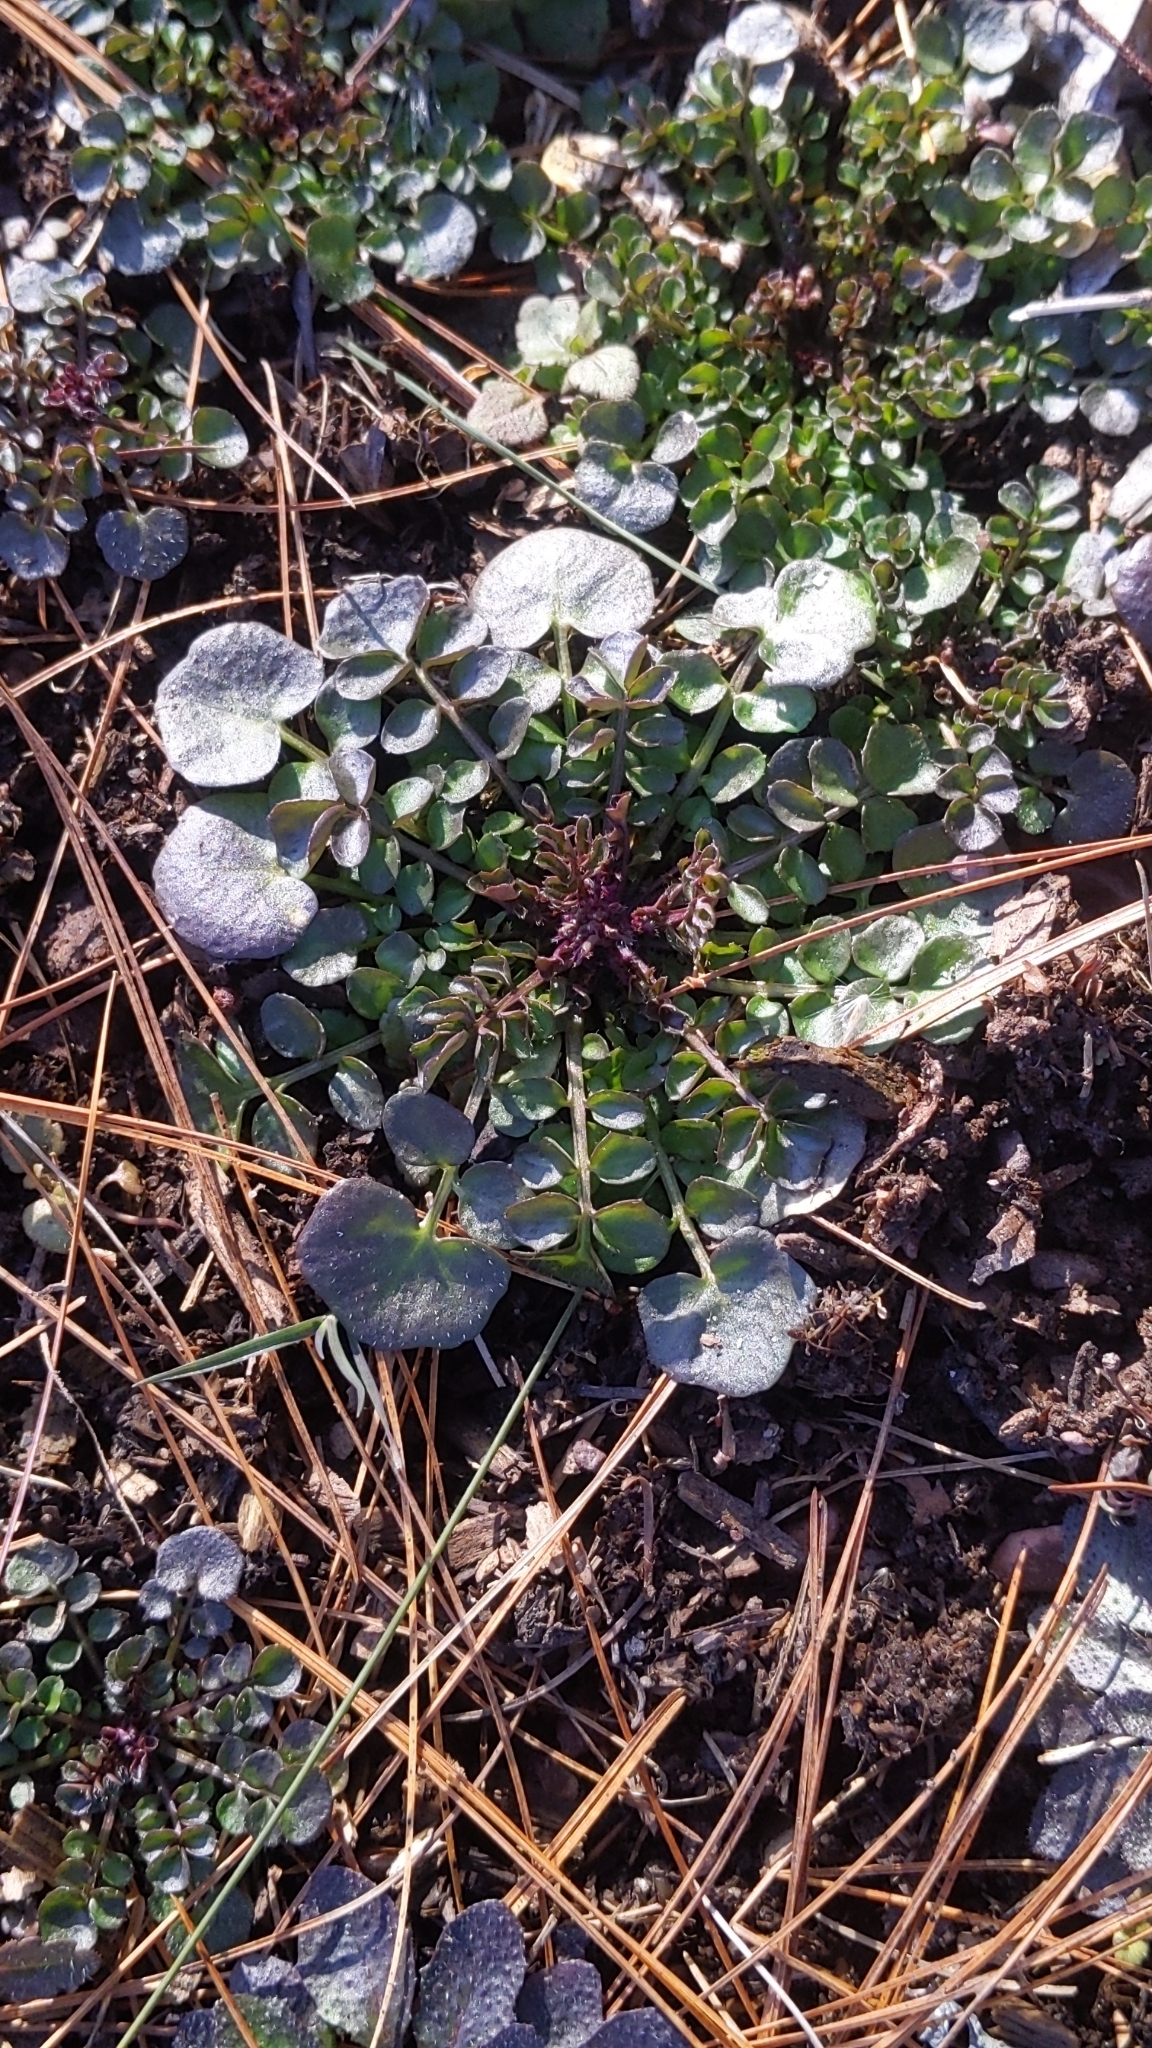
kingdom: Plantae
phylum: Tracheophyta
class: Magnoliopsida
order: Brassicales
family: Brassicaceae
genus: Cardamine
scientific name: Cardamine hirsuta
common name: Hairy bittercress
